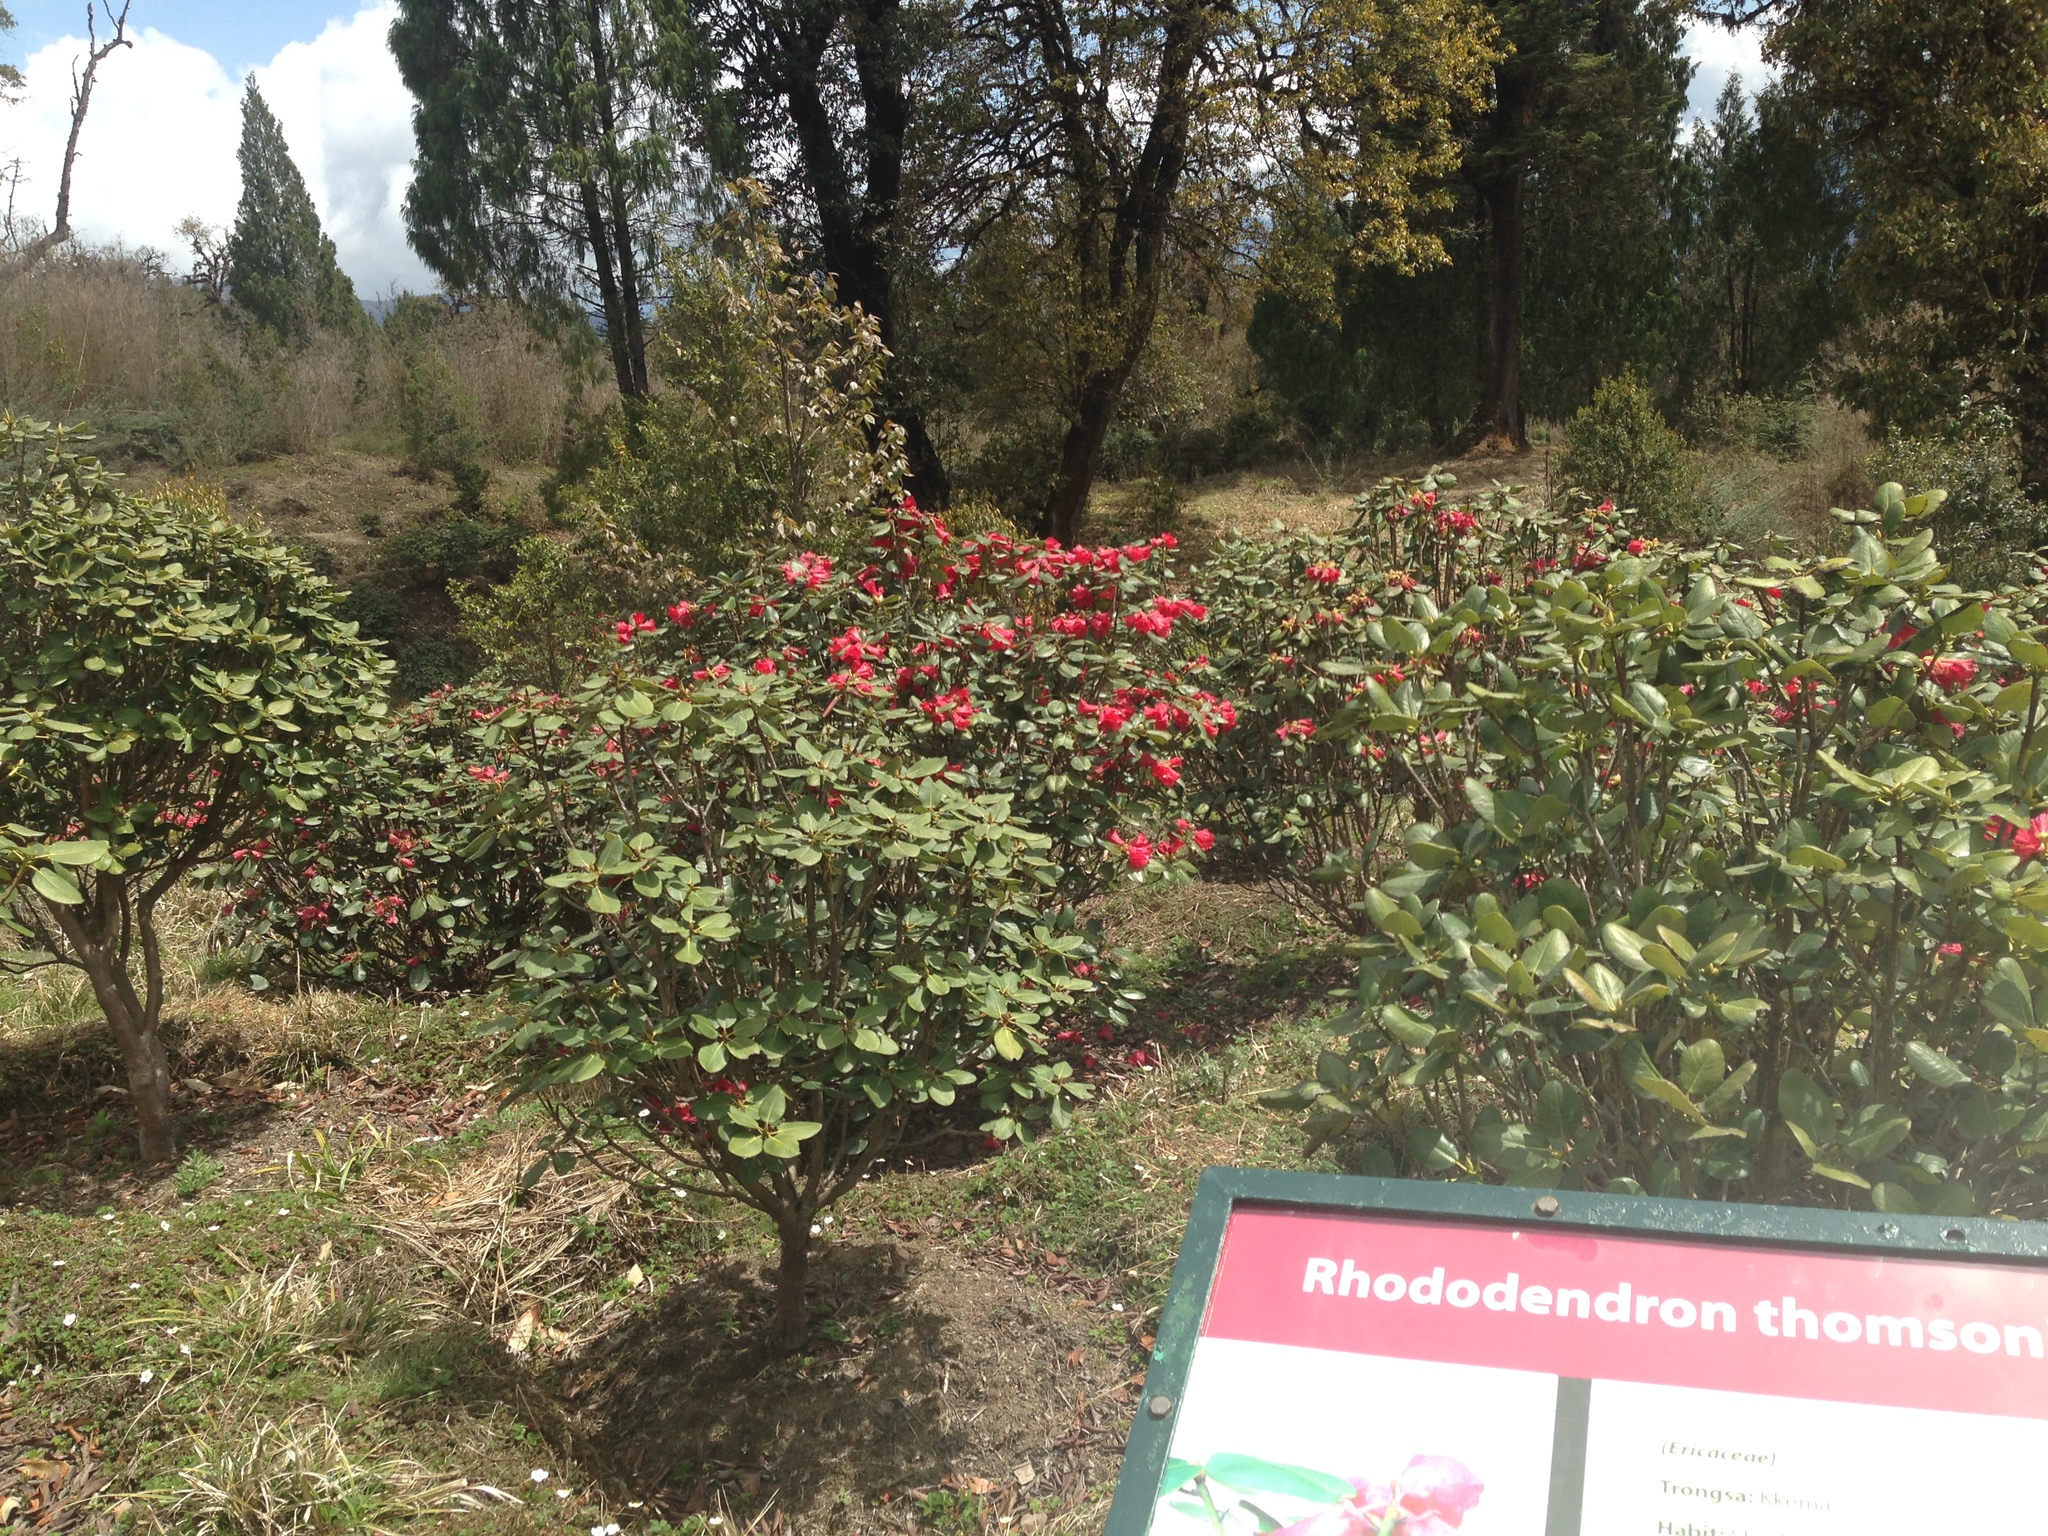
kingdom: Plantae
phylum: Tracheophyta
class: Magnoliopsida
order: Ericales
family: Ericaceae
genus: Rhododendron
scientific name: Rhododendron thomsonii
